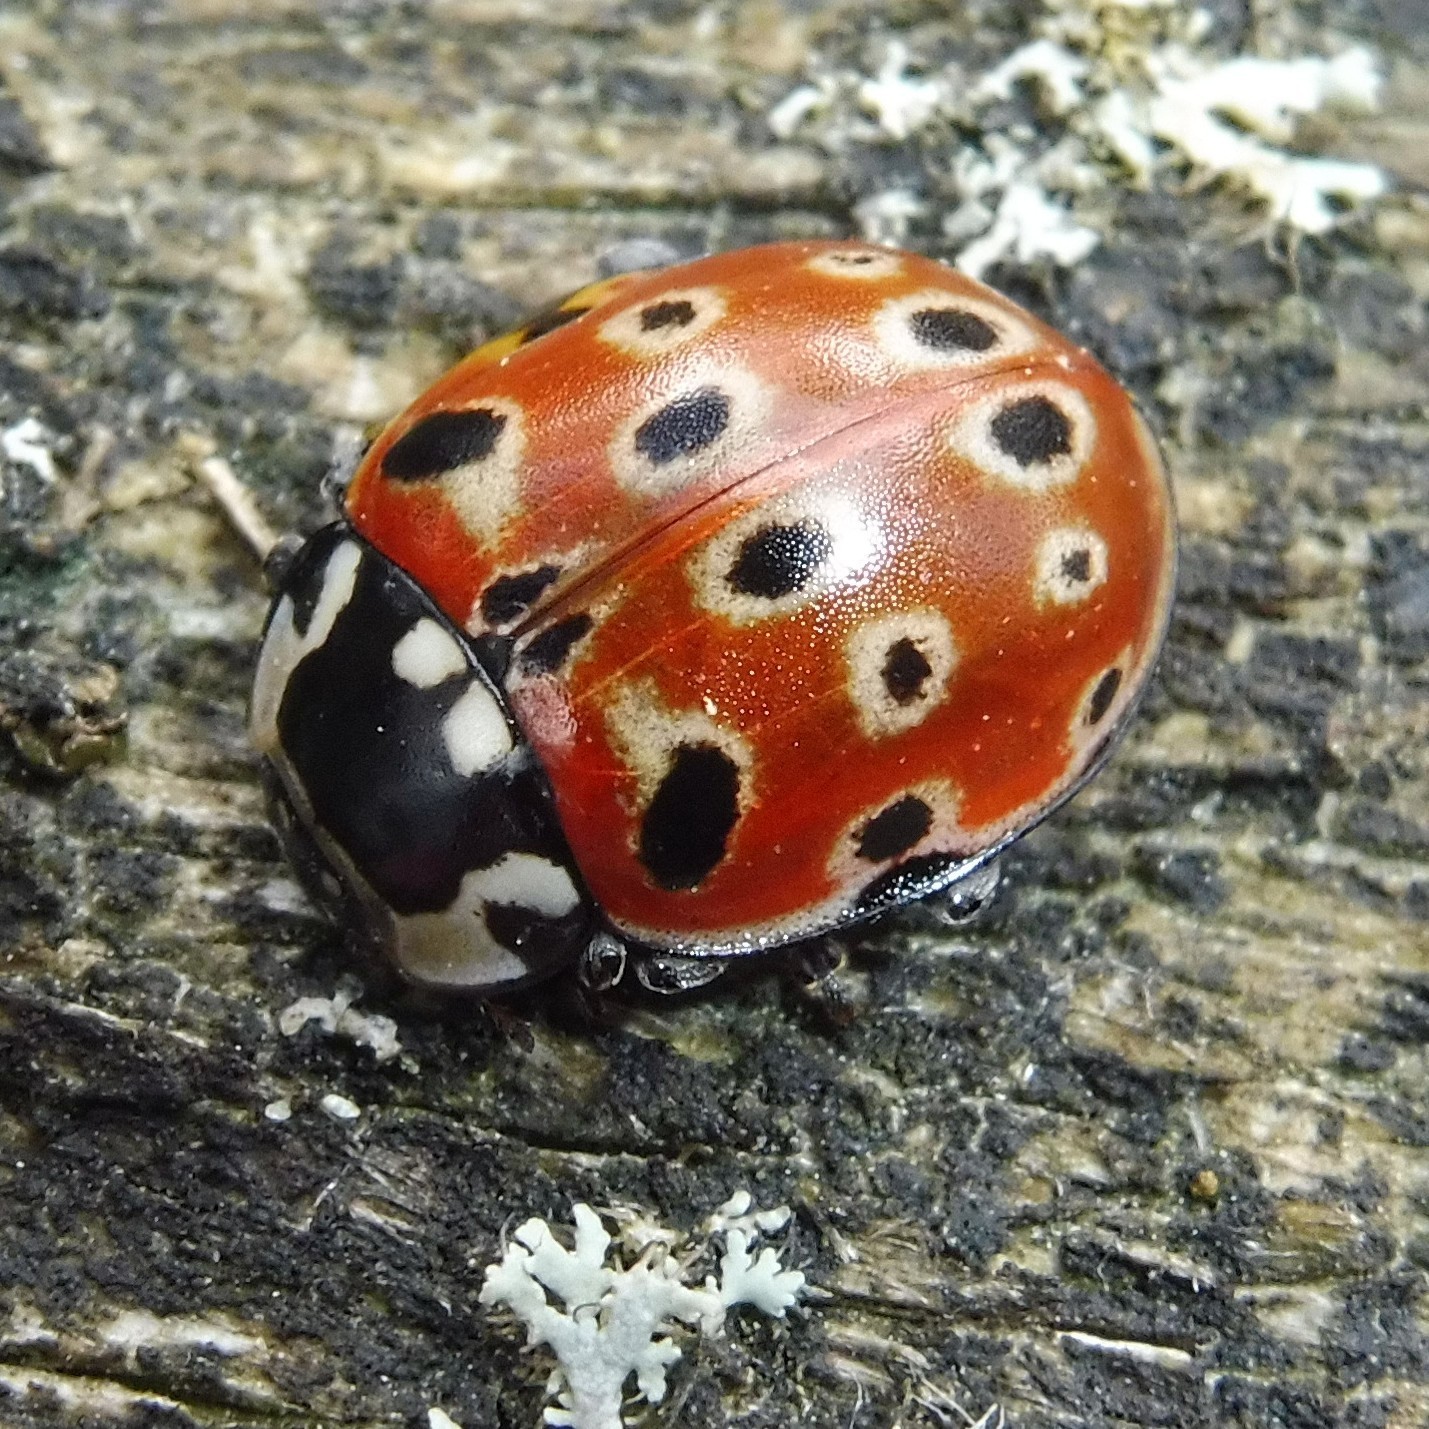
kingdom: Animalia
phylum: Arthropoda
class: Insecta
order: Coleoptera
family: Coccinellidae
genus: Anatis
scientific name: Anatis ocellata
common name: Eyed ladybird
